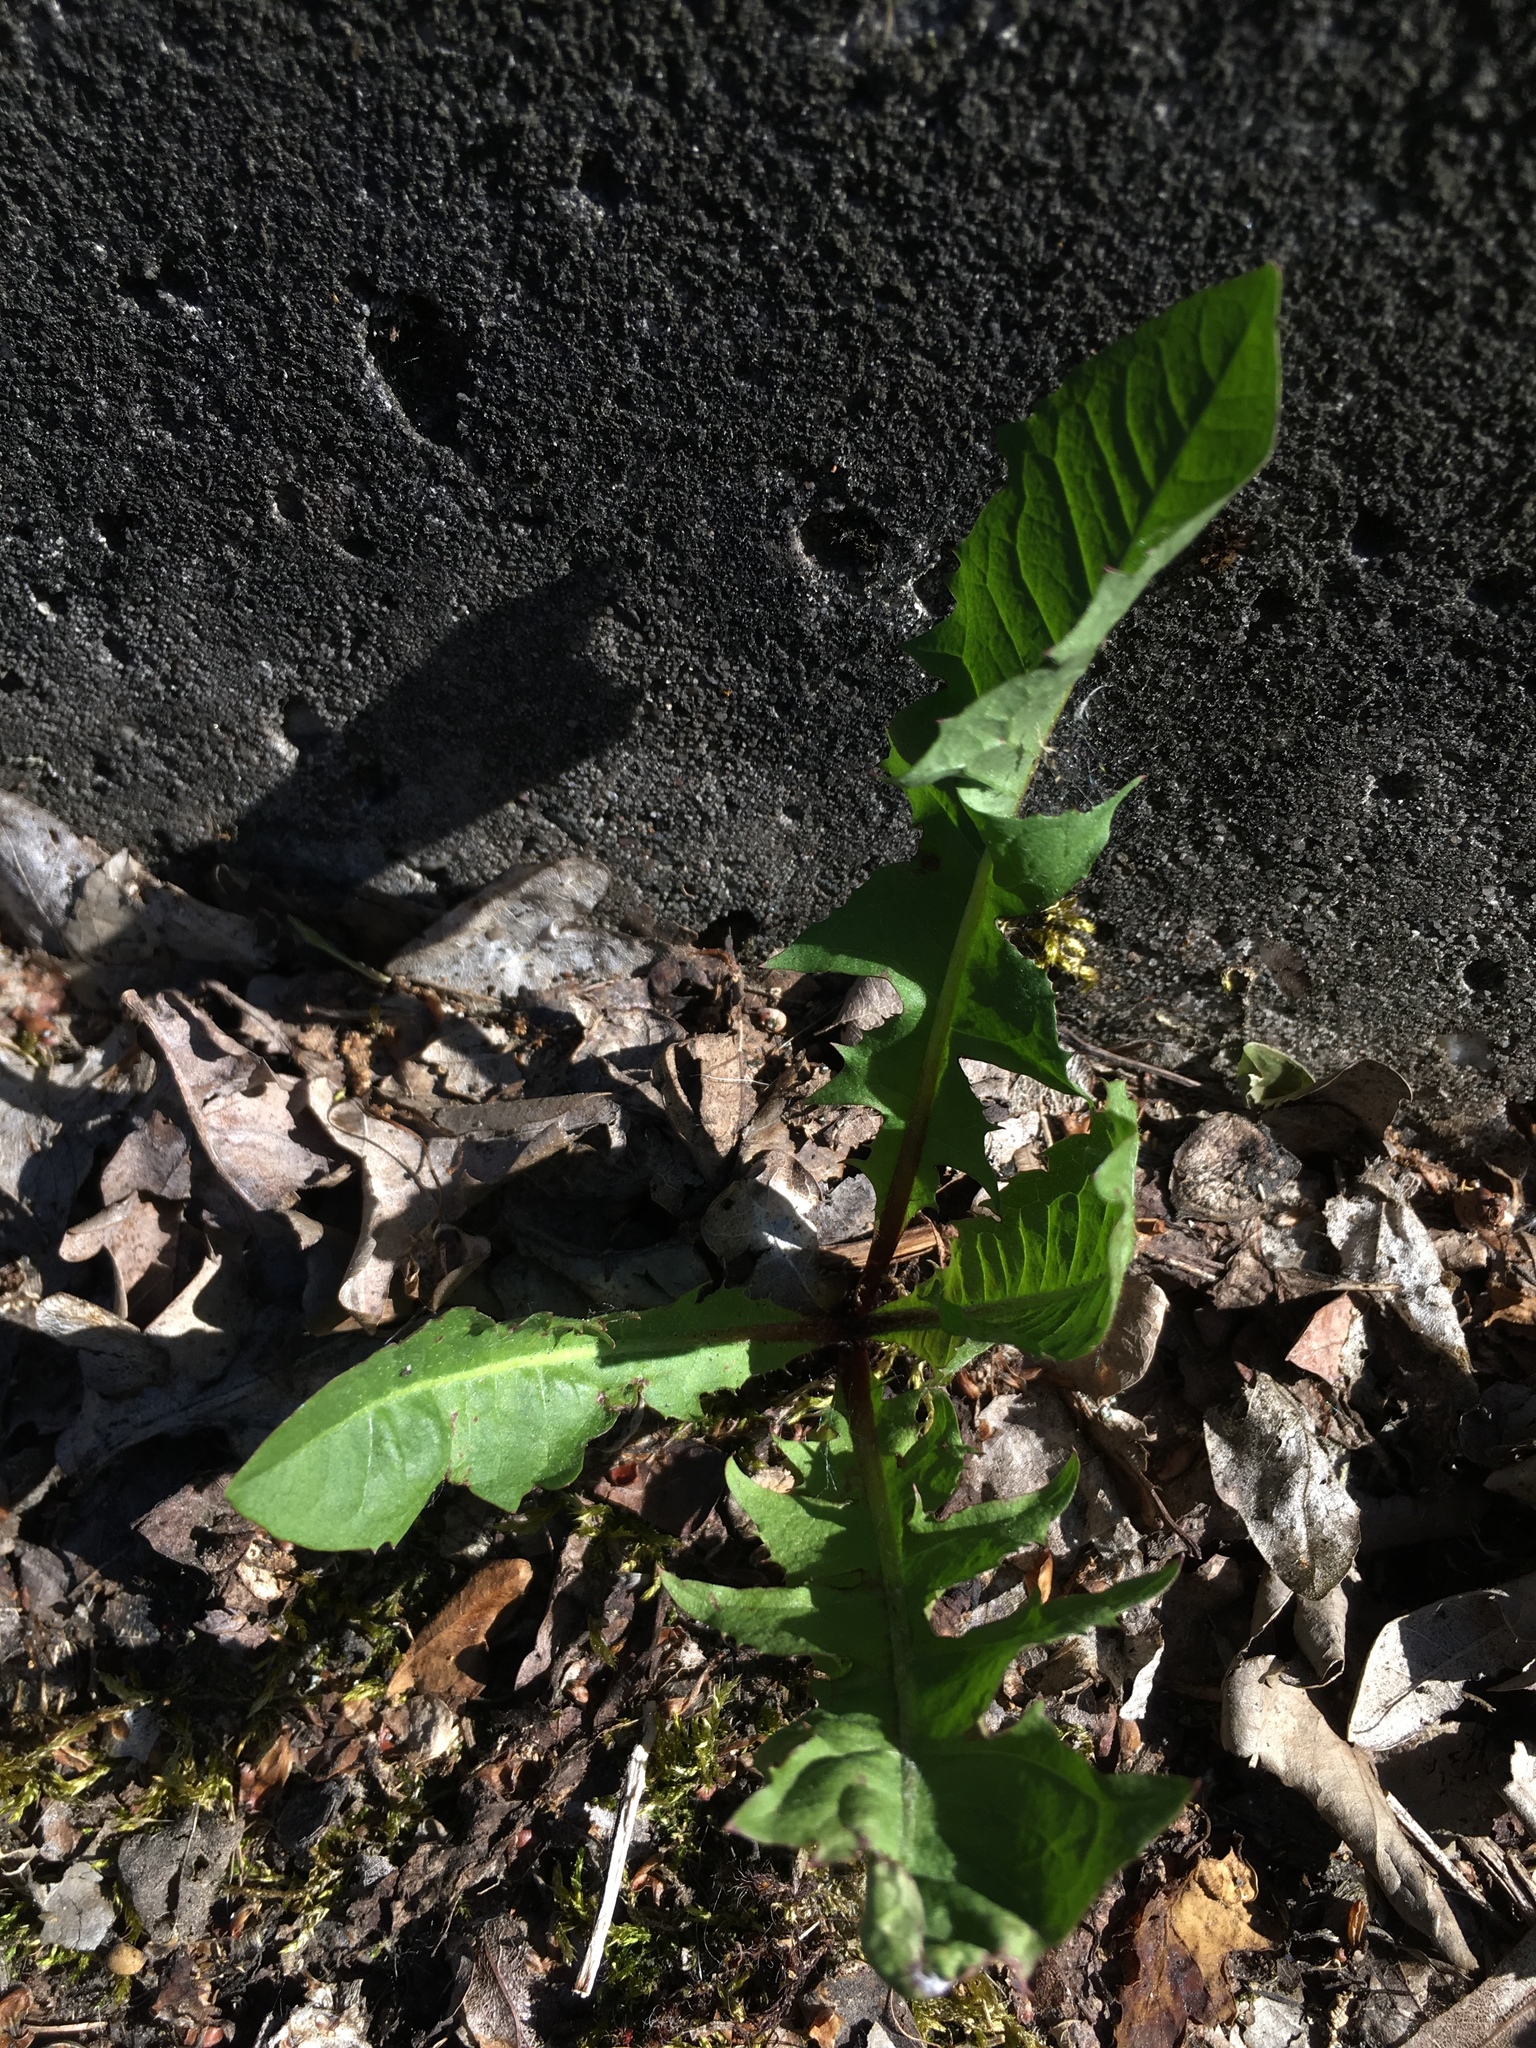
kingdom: Plantae
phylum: Tracheophyta
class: Magnoliopsida
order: Asterales
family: Asteraceae
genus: Taraxacum
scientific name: Taraxacum officinale
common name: Common dandelion
